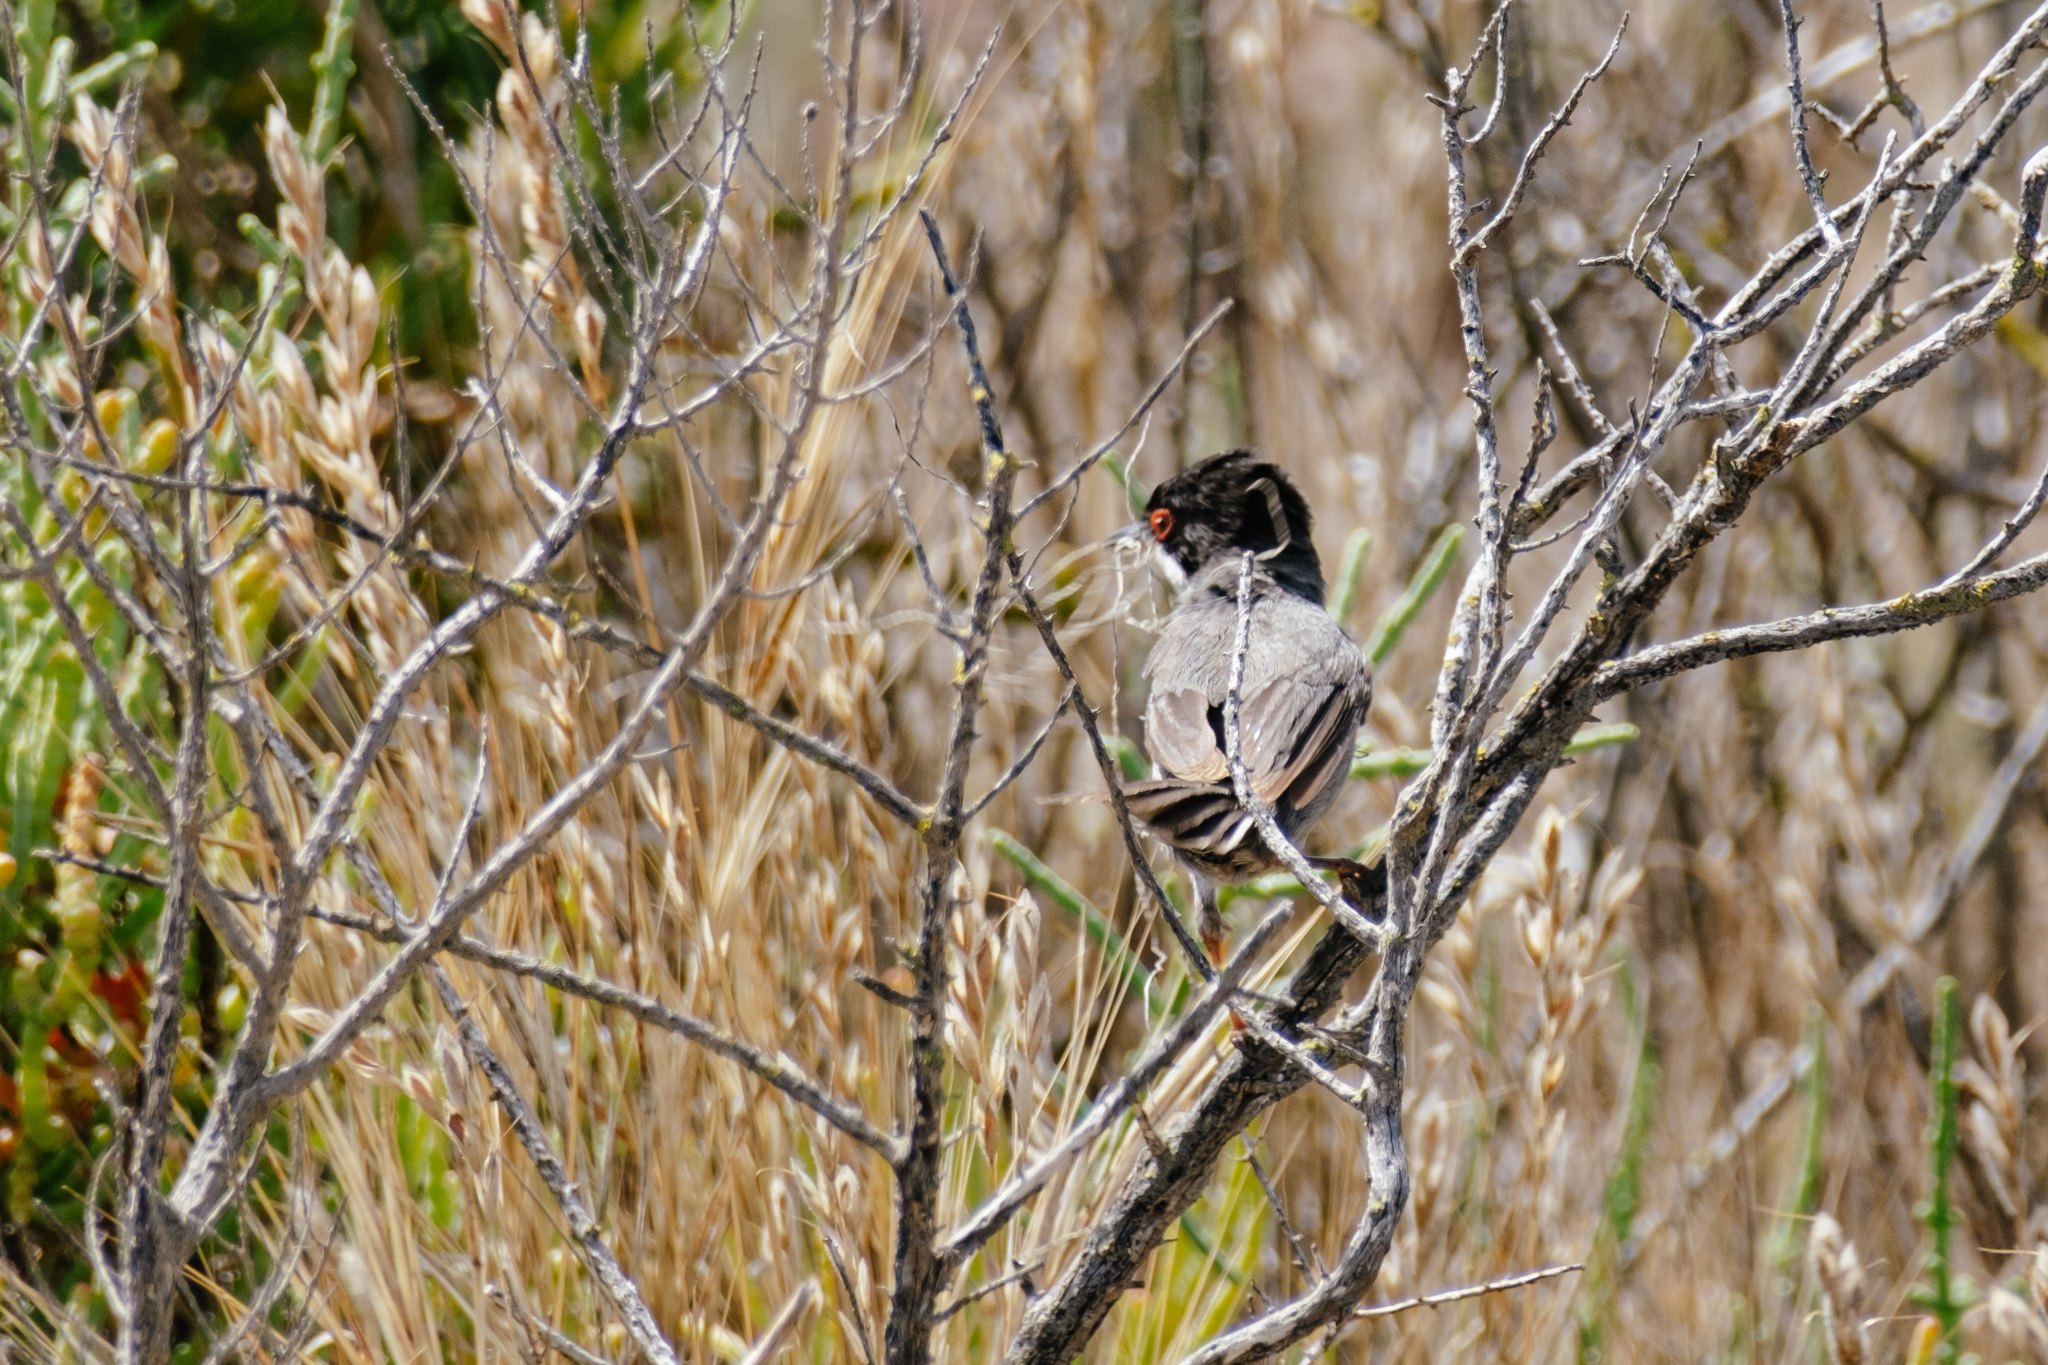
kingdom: Animalia
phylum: Chordata
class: Aves
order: Passeriformes
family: Sylviidae
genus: Curruca
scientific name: Curruca melanocephala
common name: Sardinian warbler
